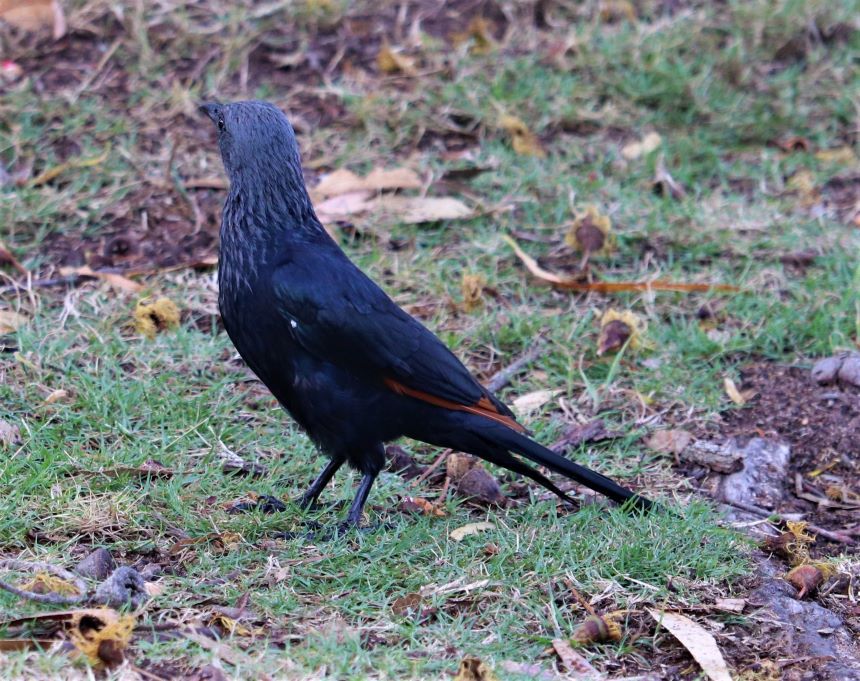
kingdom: Animalia
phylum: Chordata
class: Aves
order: Passeriformes
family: Sturnidae
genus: Onychognathus
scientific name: Onychognathus morio
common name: Red-winged starling
